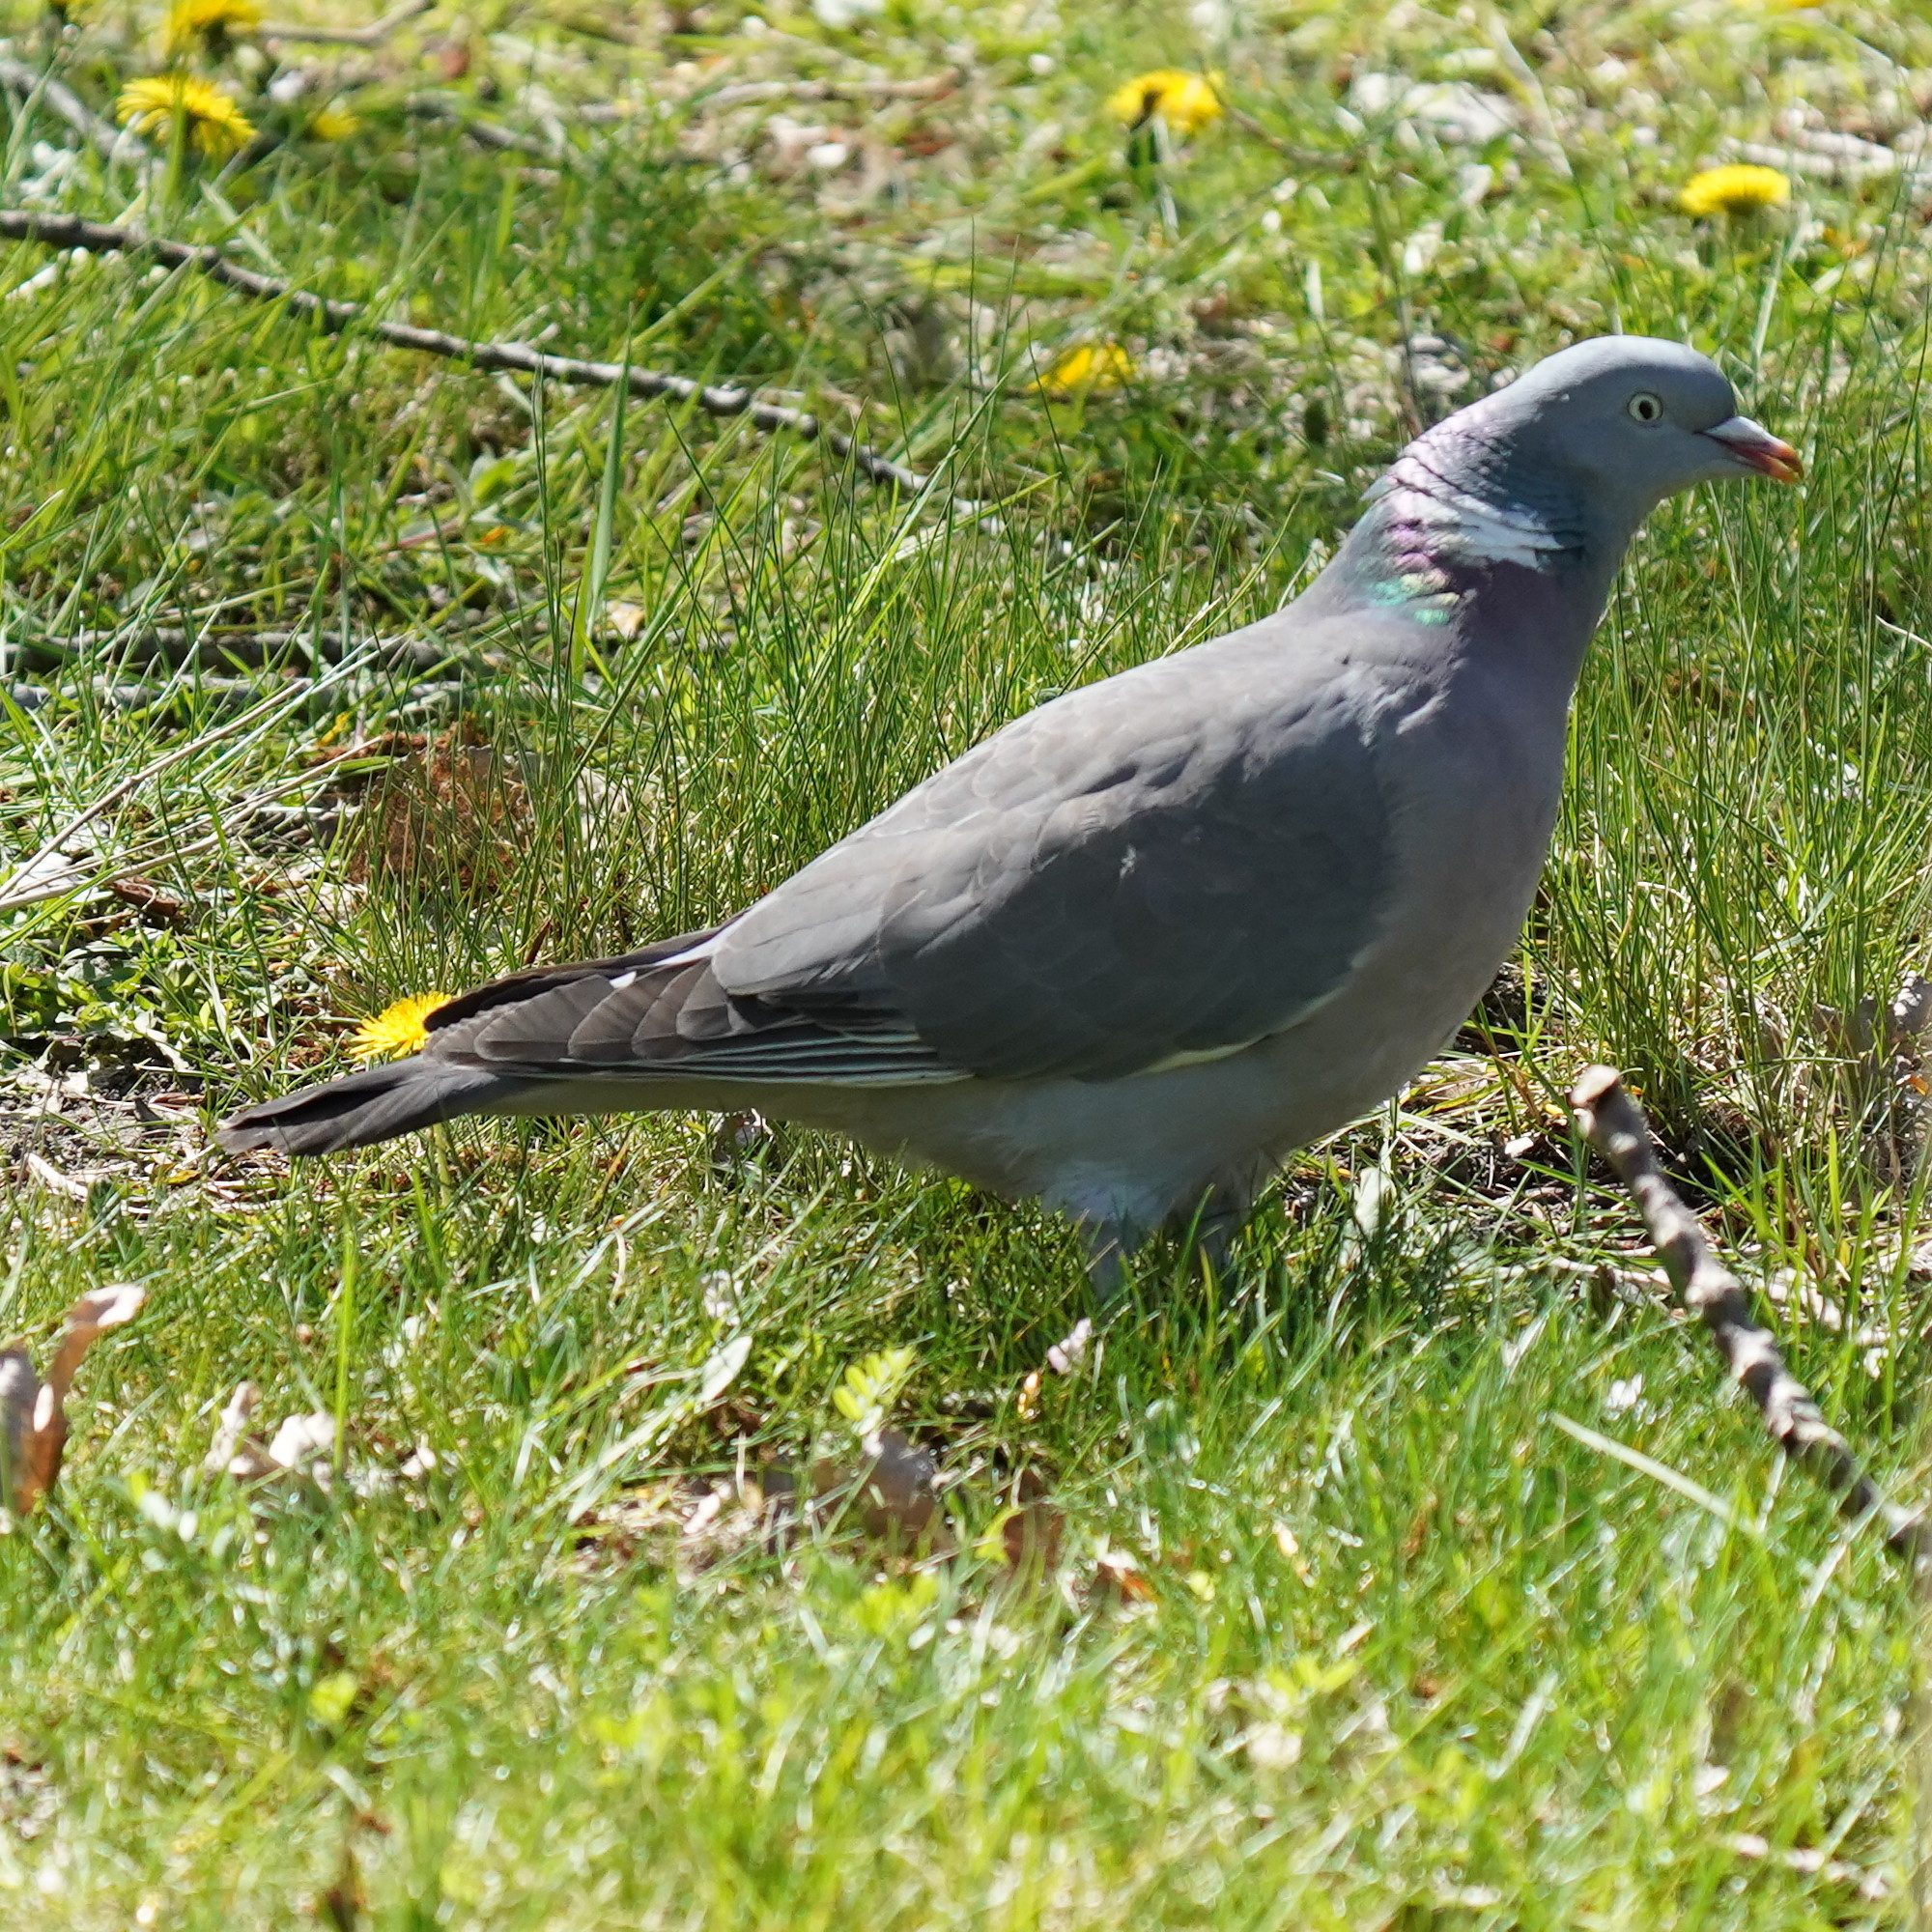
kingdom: Animalia
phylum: Chordata
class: Aves
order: Columbiformes
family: Columbidae
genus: Columba
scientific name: Columba palumbus
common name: Common wood pigeon
